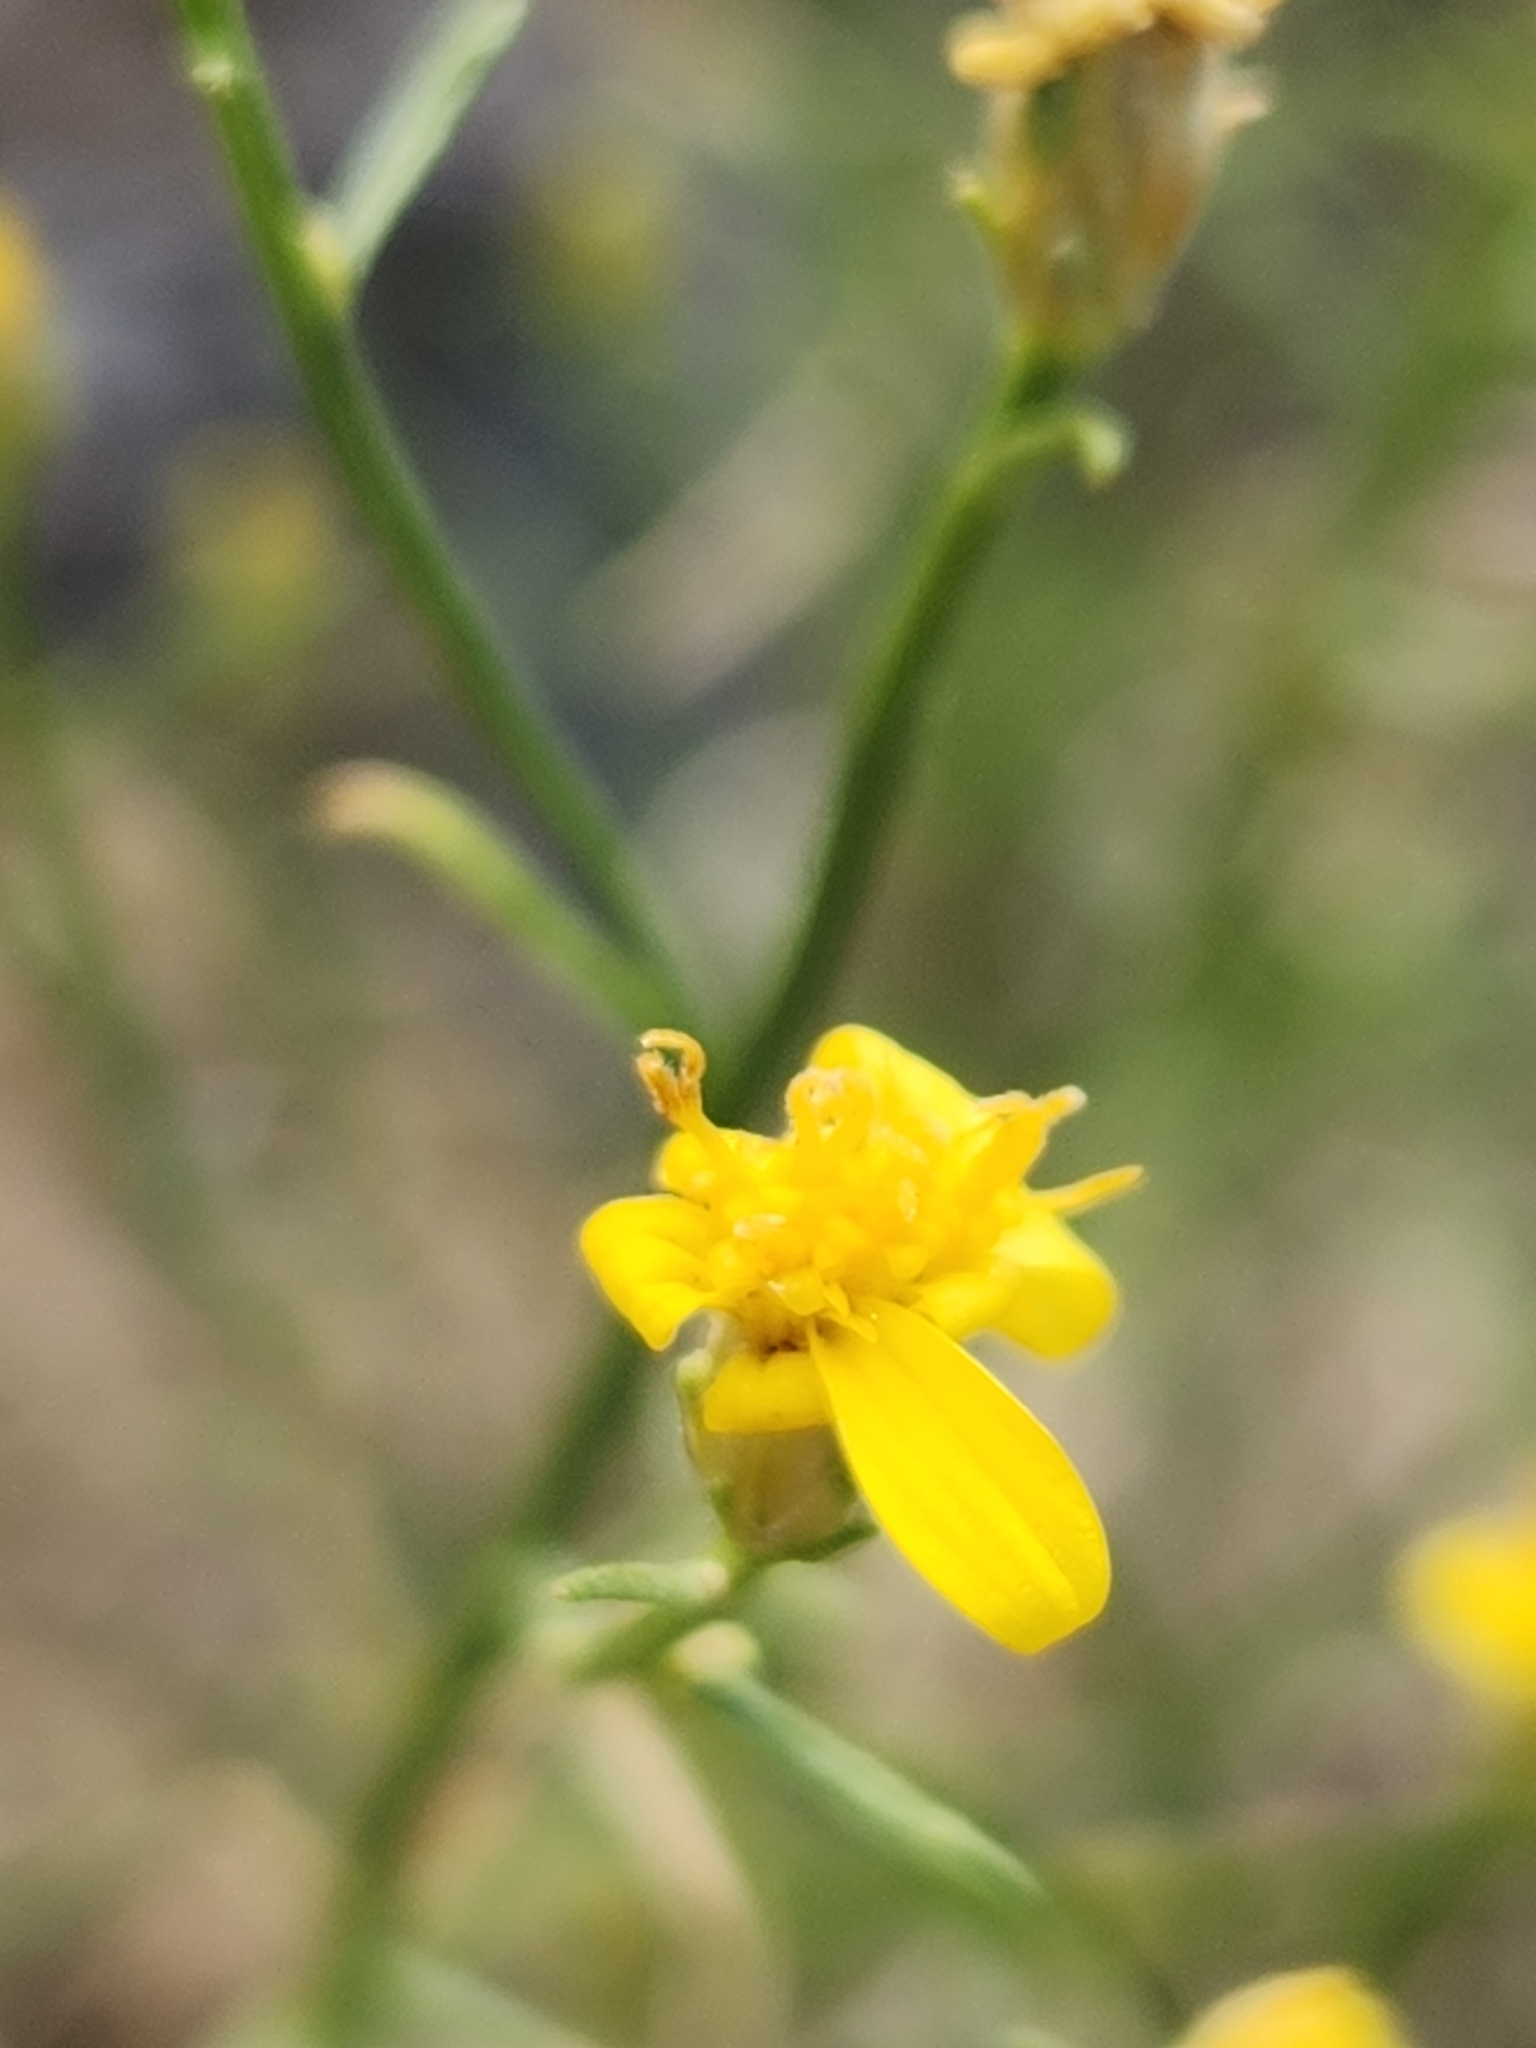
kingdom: Plantae
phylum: Tracheophyta
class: Magnoliopsida
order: Asterales
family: Asteraceae
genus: Gutierrezia
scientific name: Gutierrezia sarothrae
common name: Broom snakeweed
